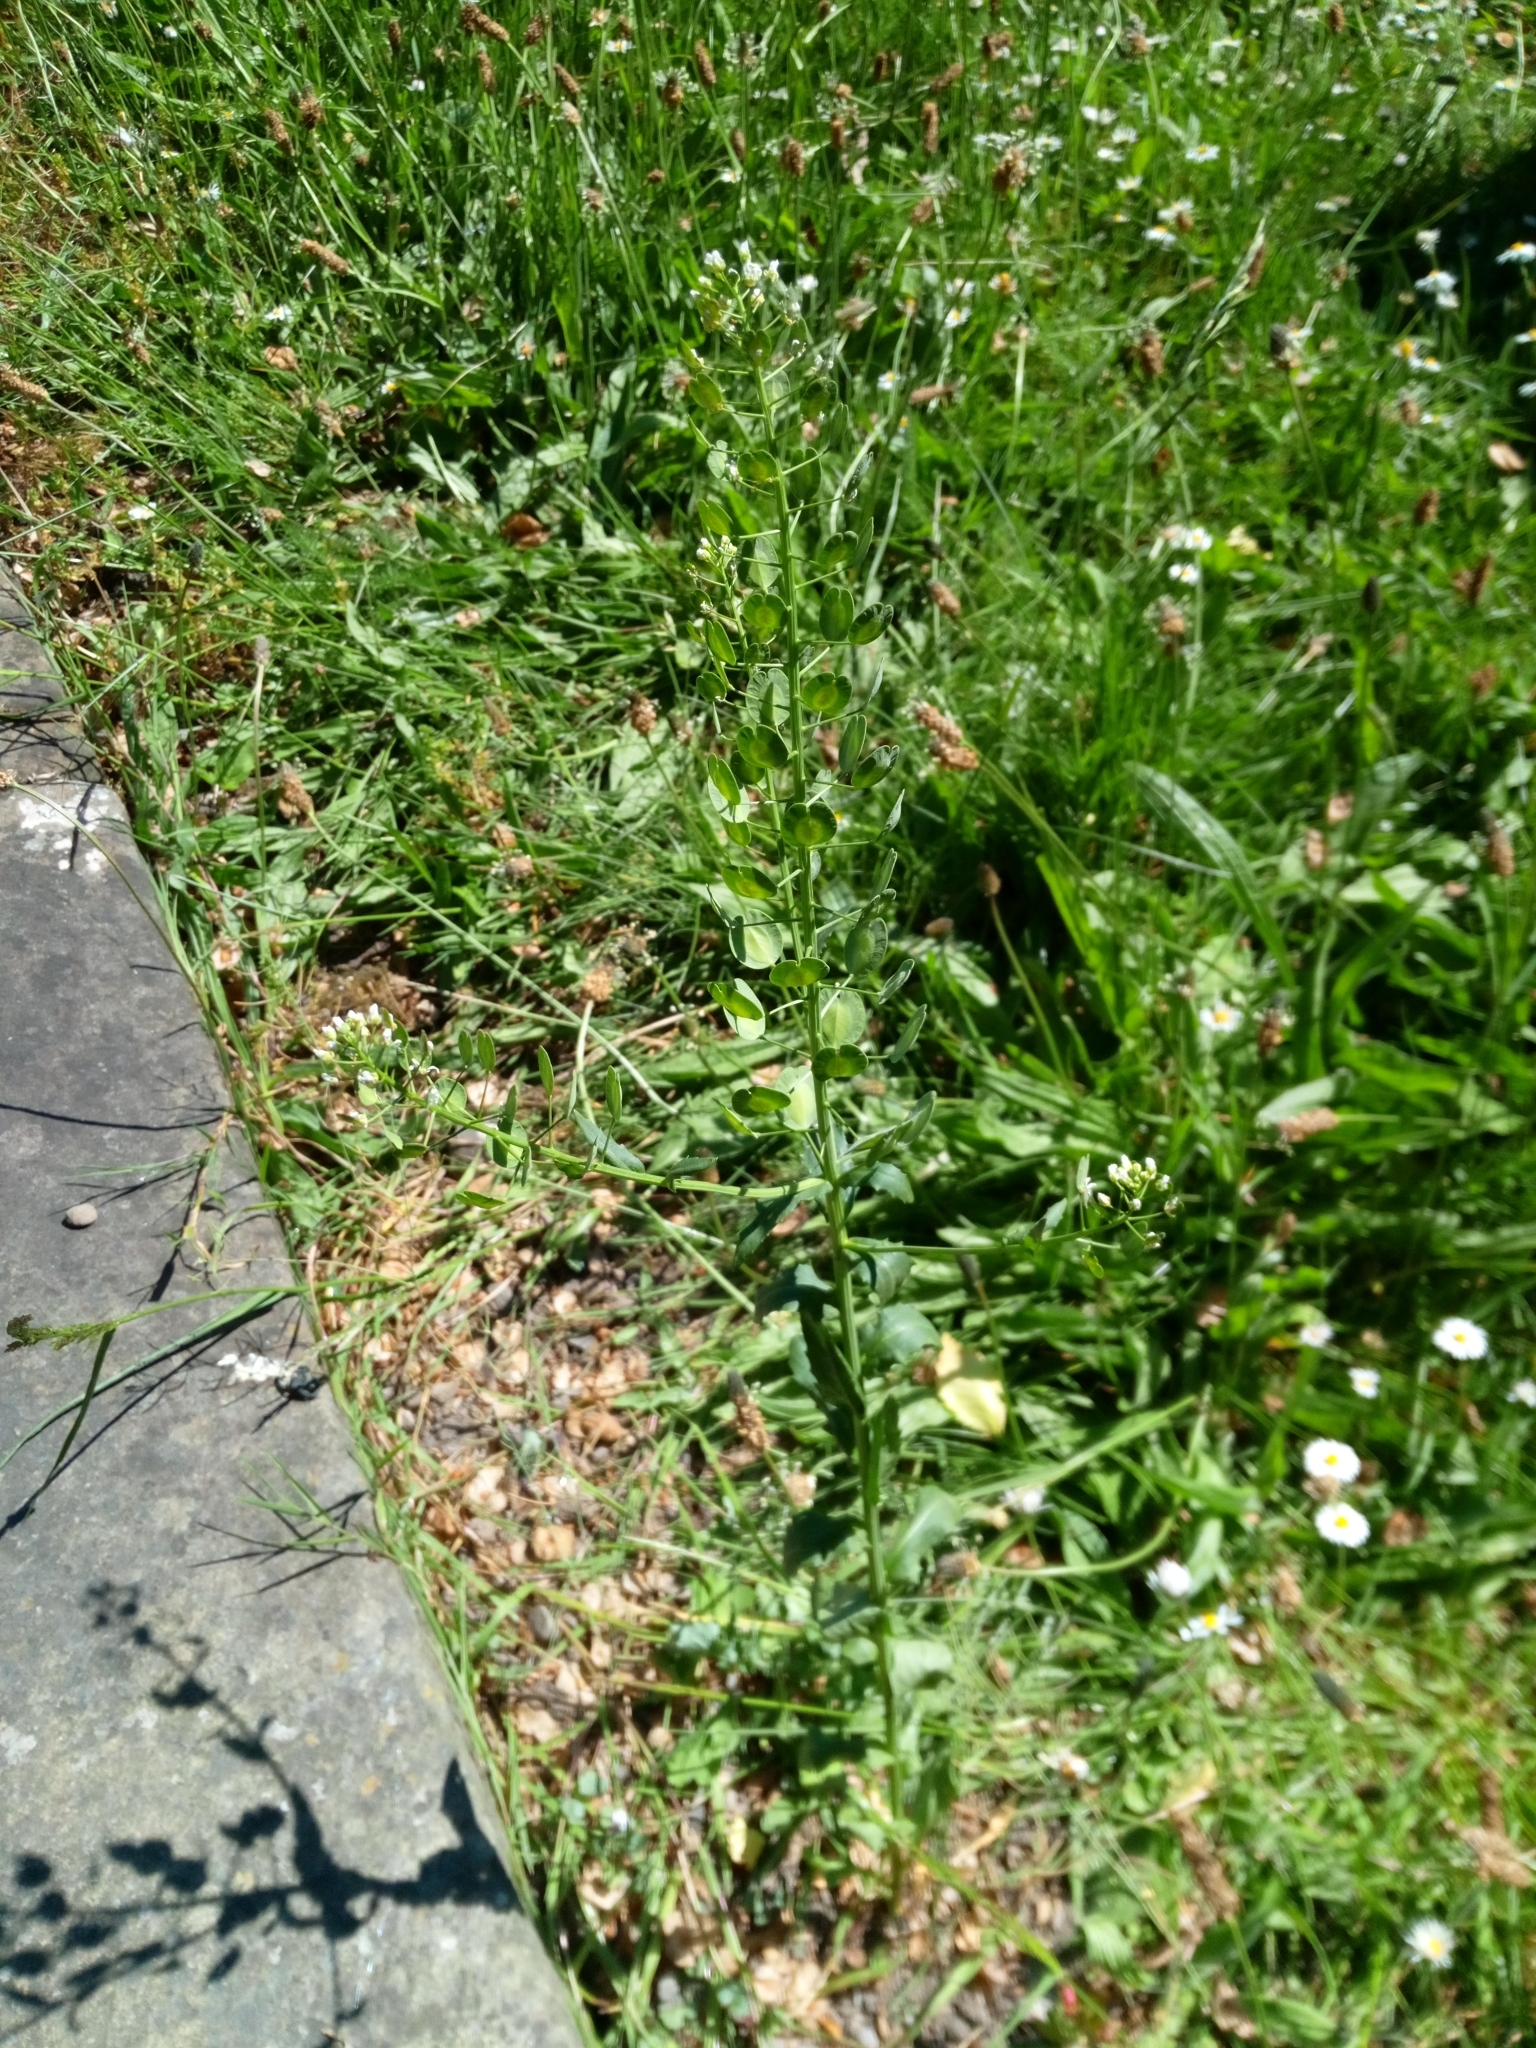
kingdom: Plantae
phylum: Tracheophyta
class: Magnoliopsida
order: Brassicales
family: Brassicaceae
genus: Thlaspi
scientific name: Thlaspi arvense
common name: Field pennycress
